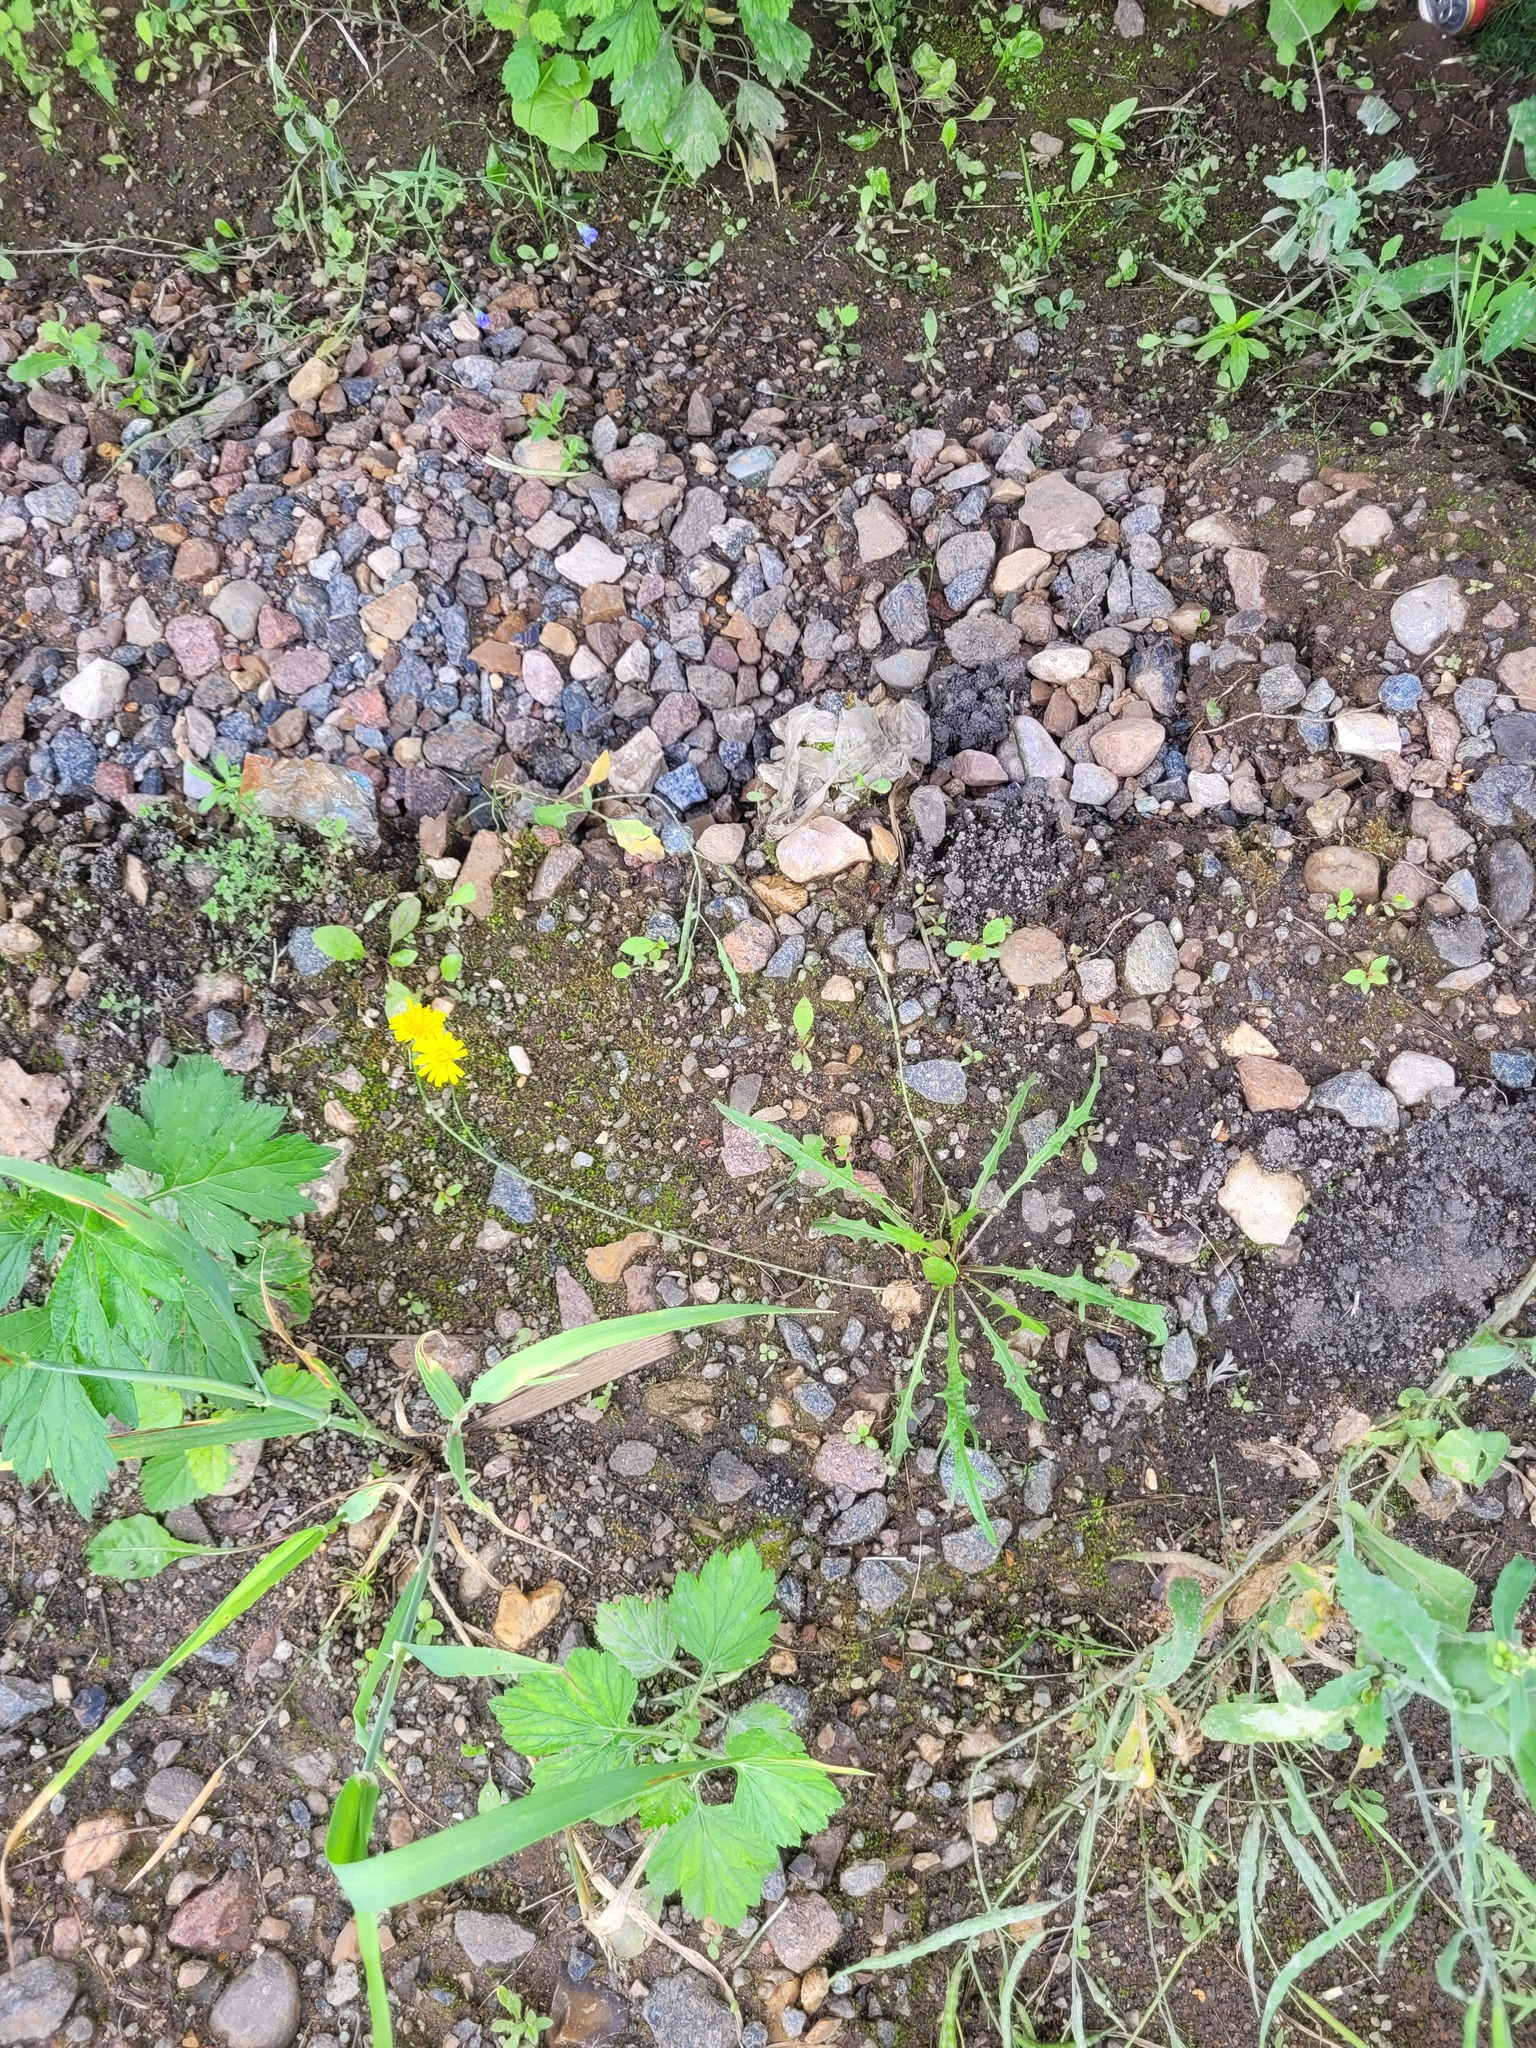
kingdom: Plantae
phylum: Tracheophyta
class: Magnoliopsida
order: Asterales
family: Asteraceae
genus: Scorzoneroides
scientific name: Scorzoneroides autumnalis
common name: Autumn hawkbit
